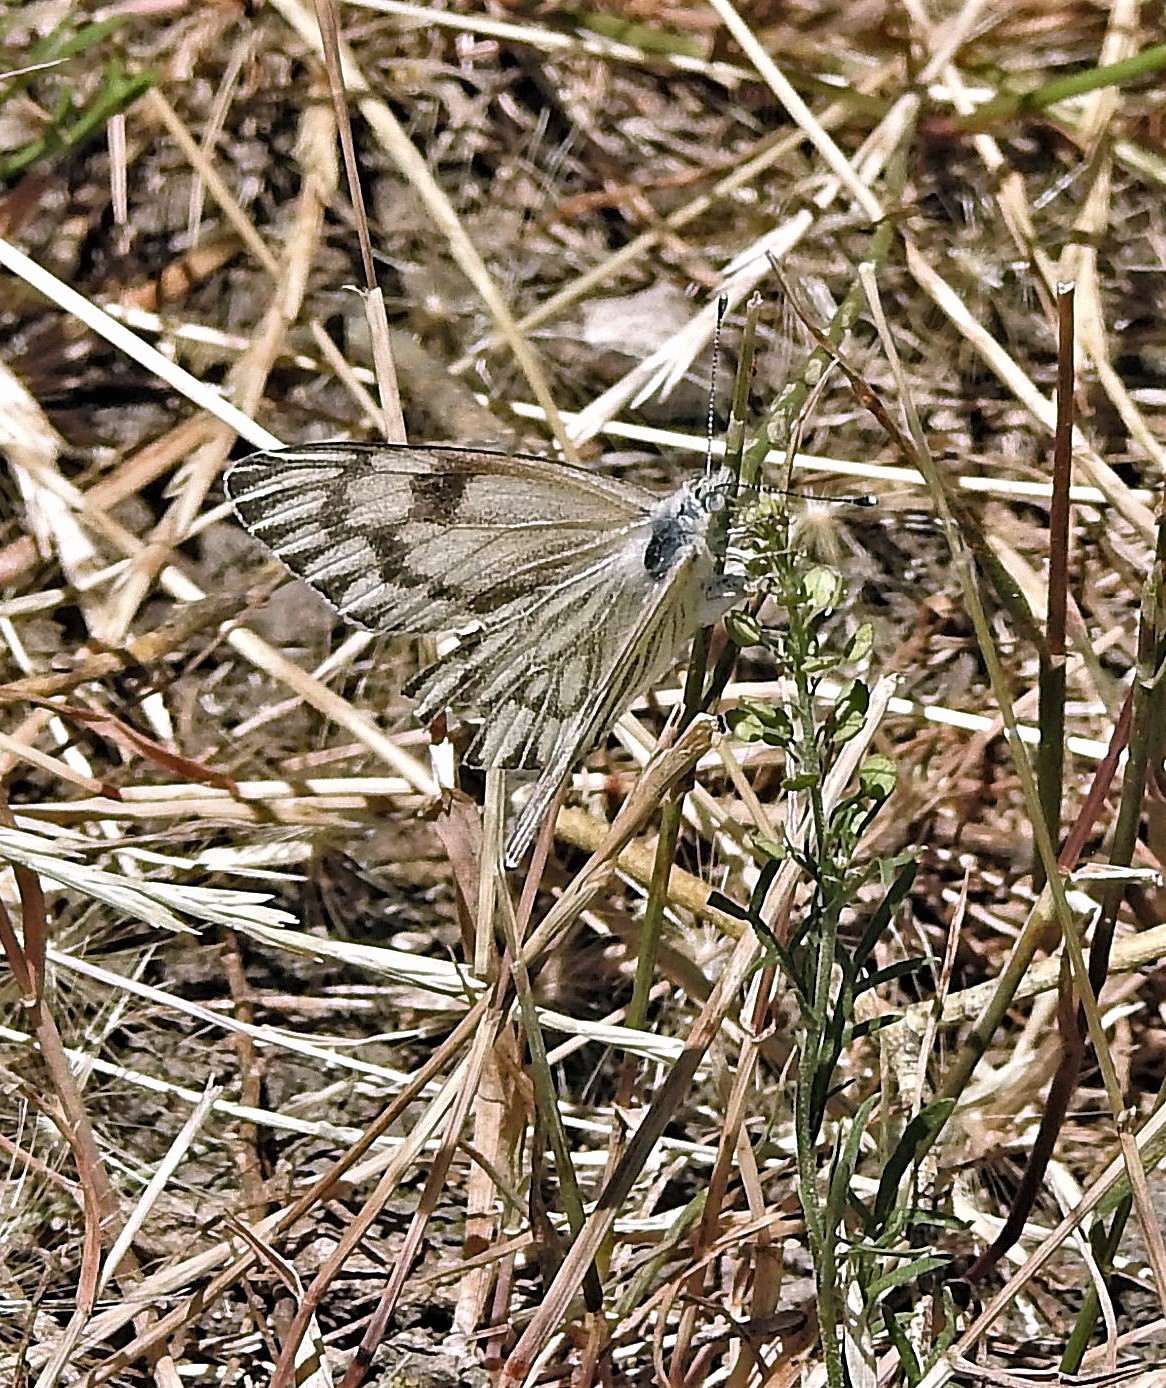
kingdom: Animalia
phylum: Arthropoda
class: Insecta
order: Lepidoptera
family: Pieridae
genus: Tatochila
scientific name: Tatochila mercedis
